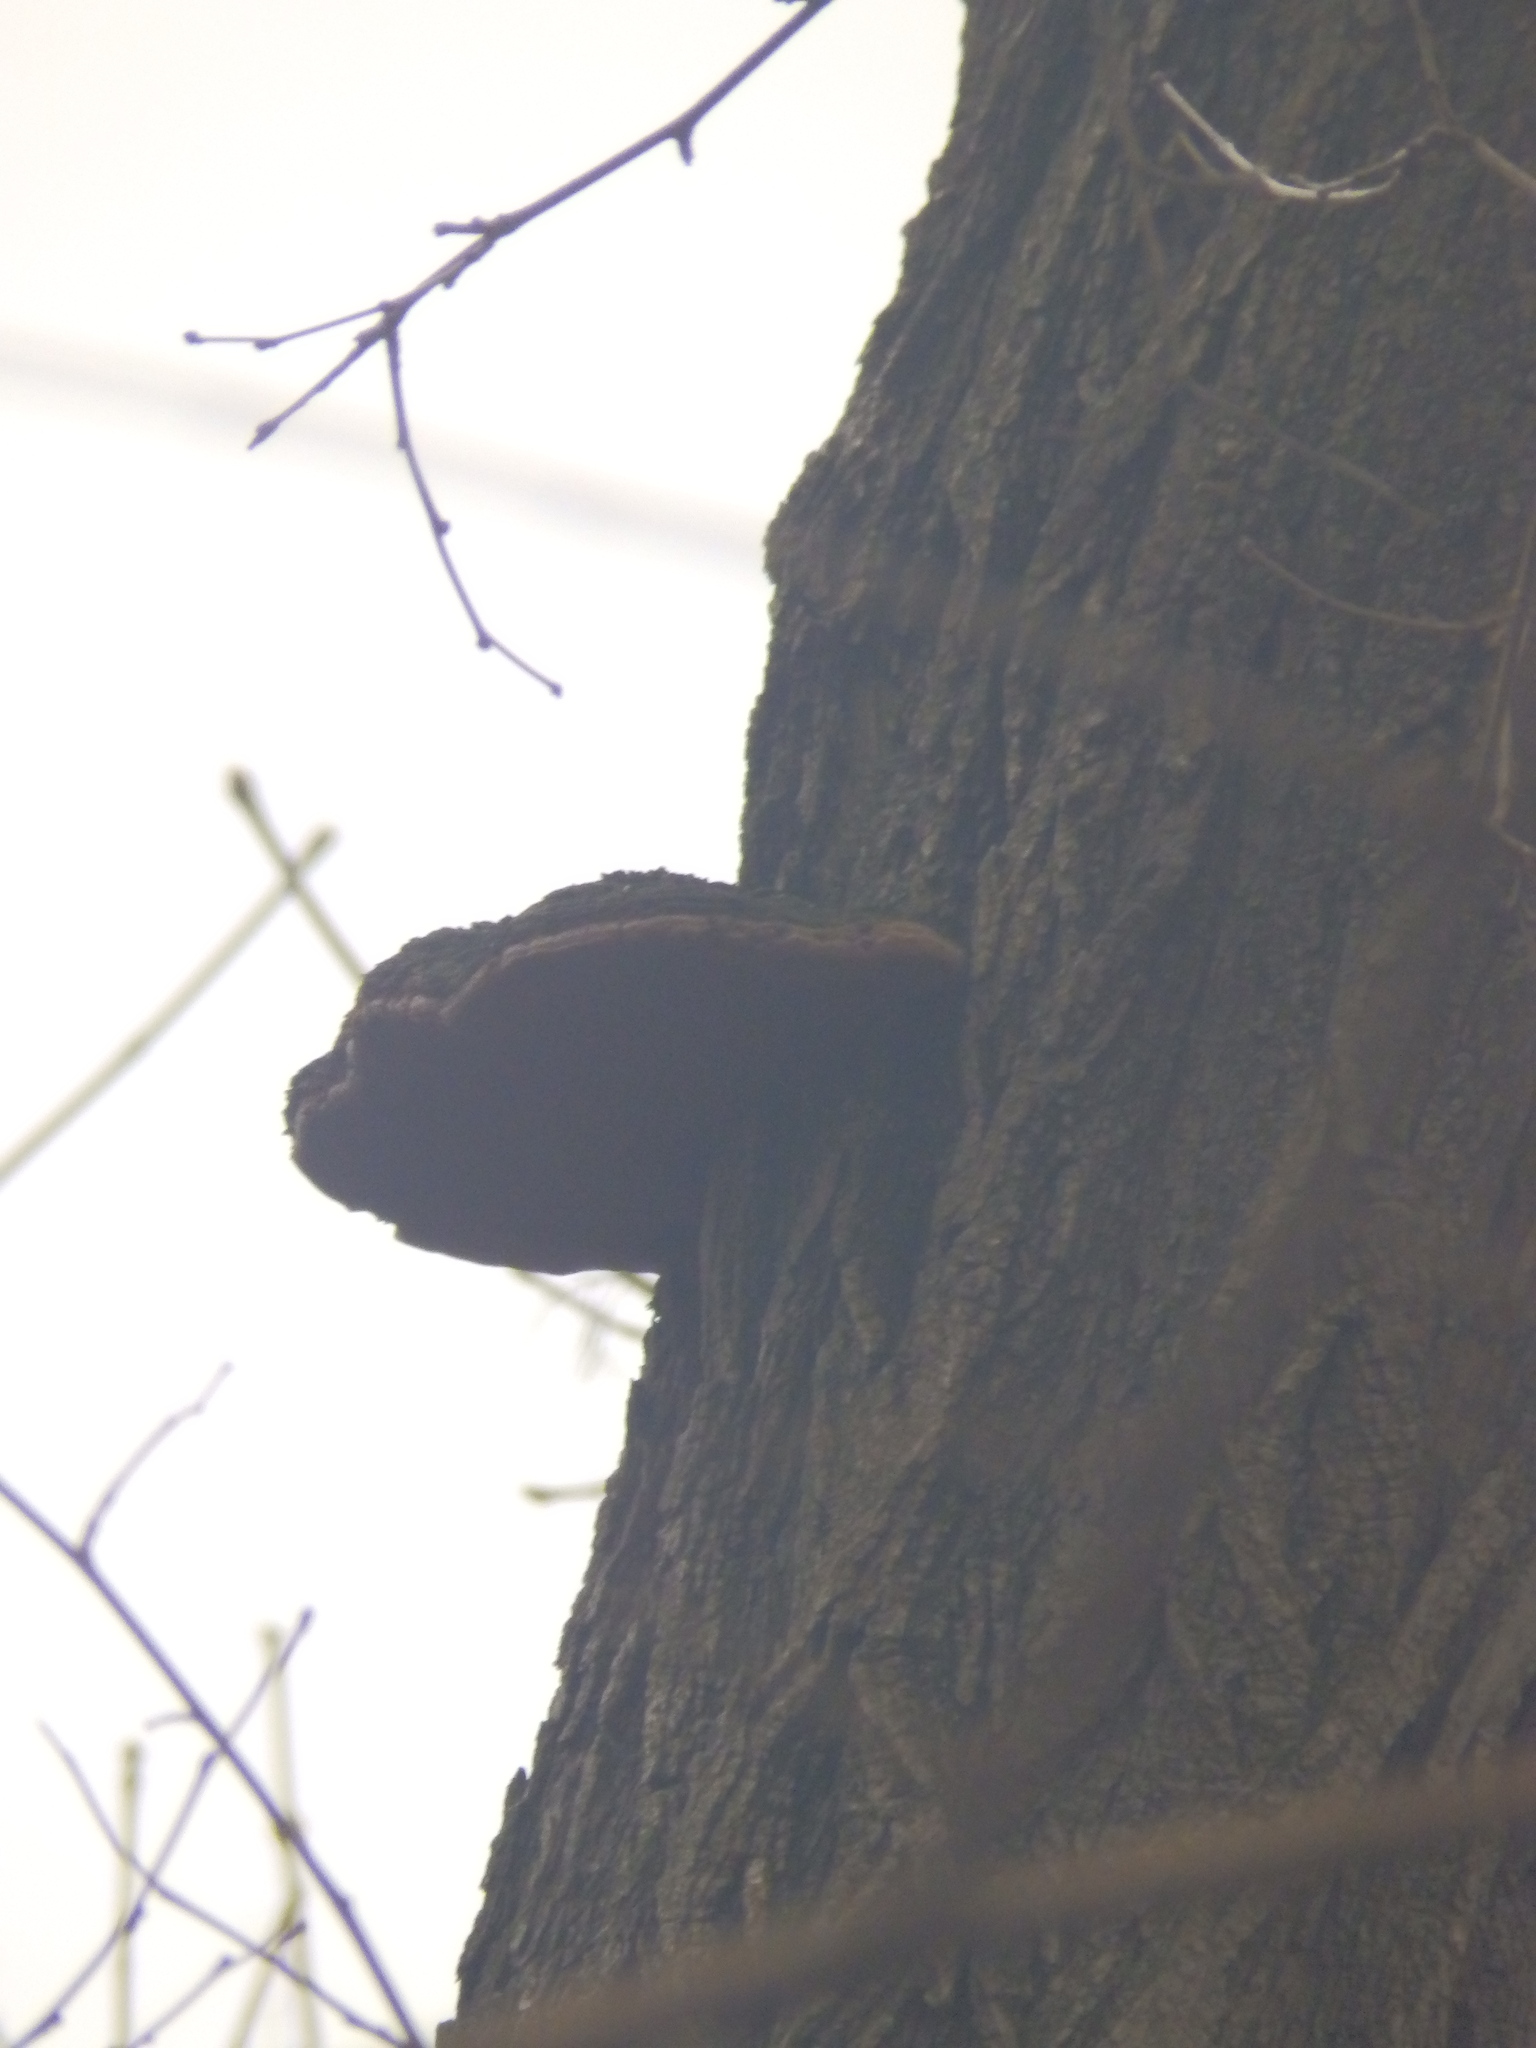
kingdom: Fungi
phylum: Basidiomycota
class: Agaricomycetes
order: Hymenochaetales
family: Hymenochaetaceae
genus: Phellinus
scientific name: Phellinus robiniae
